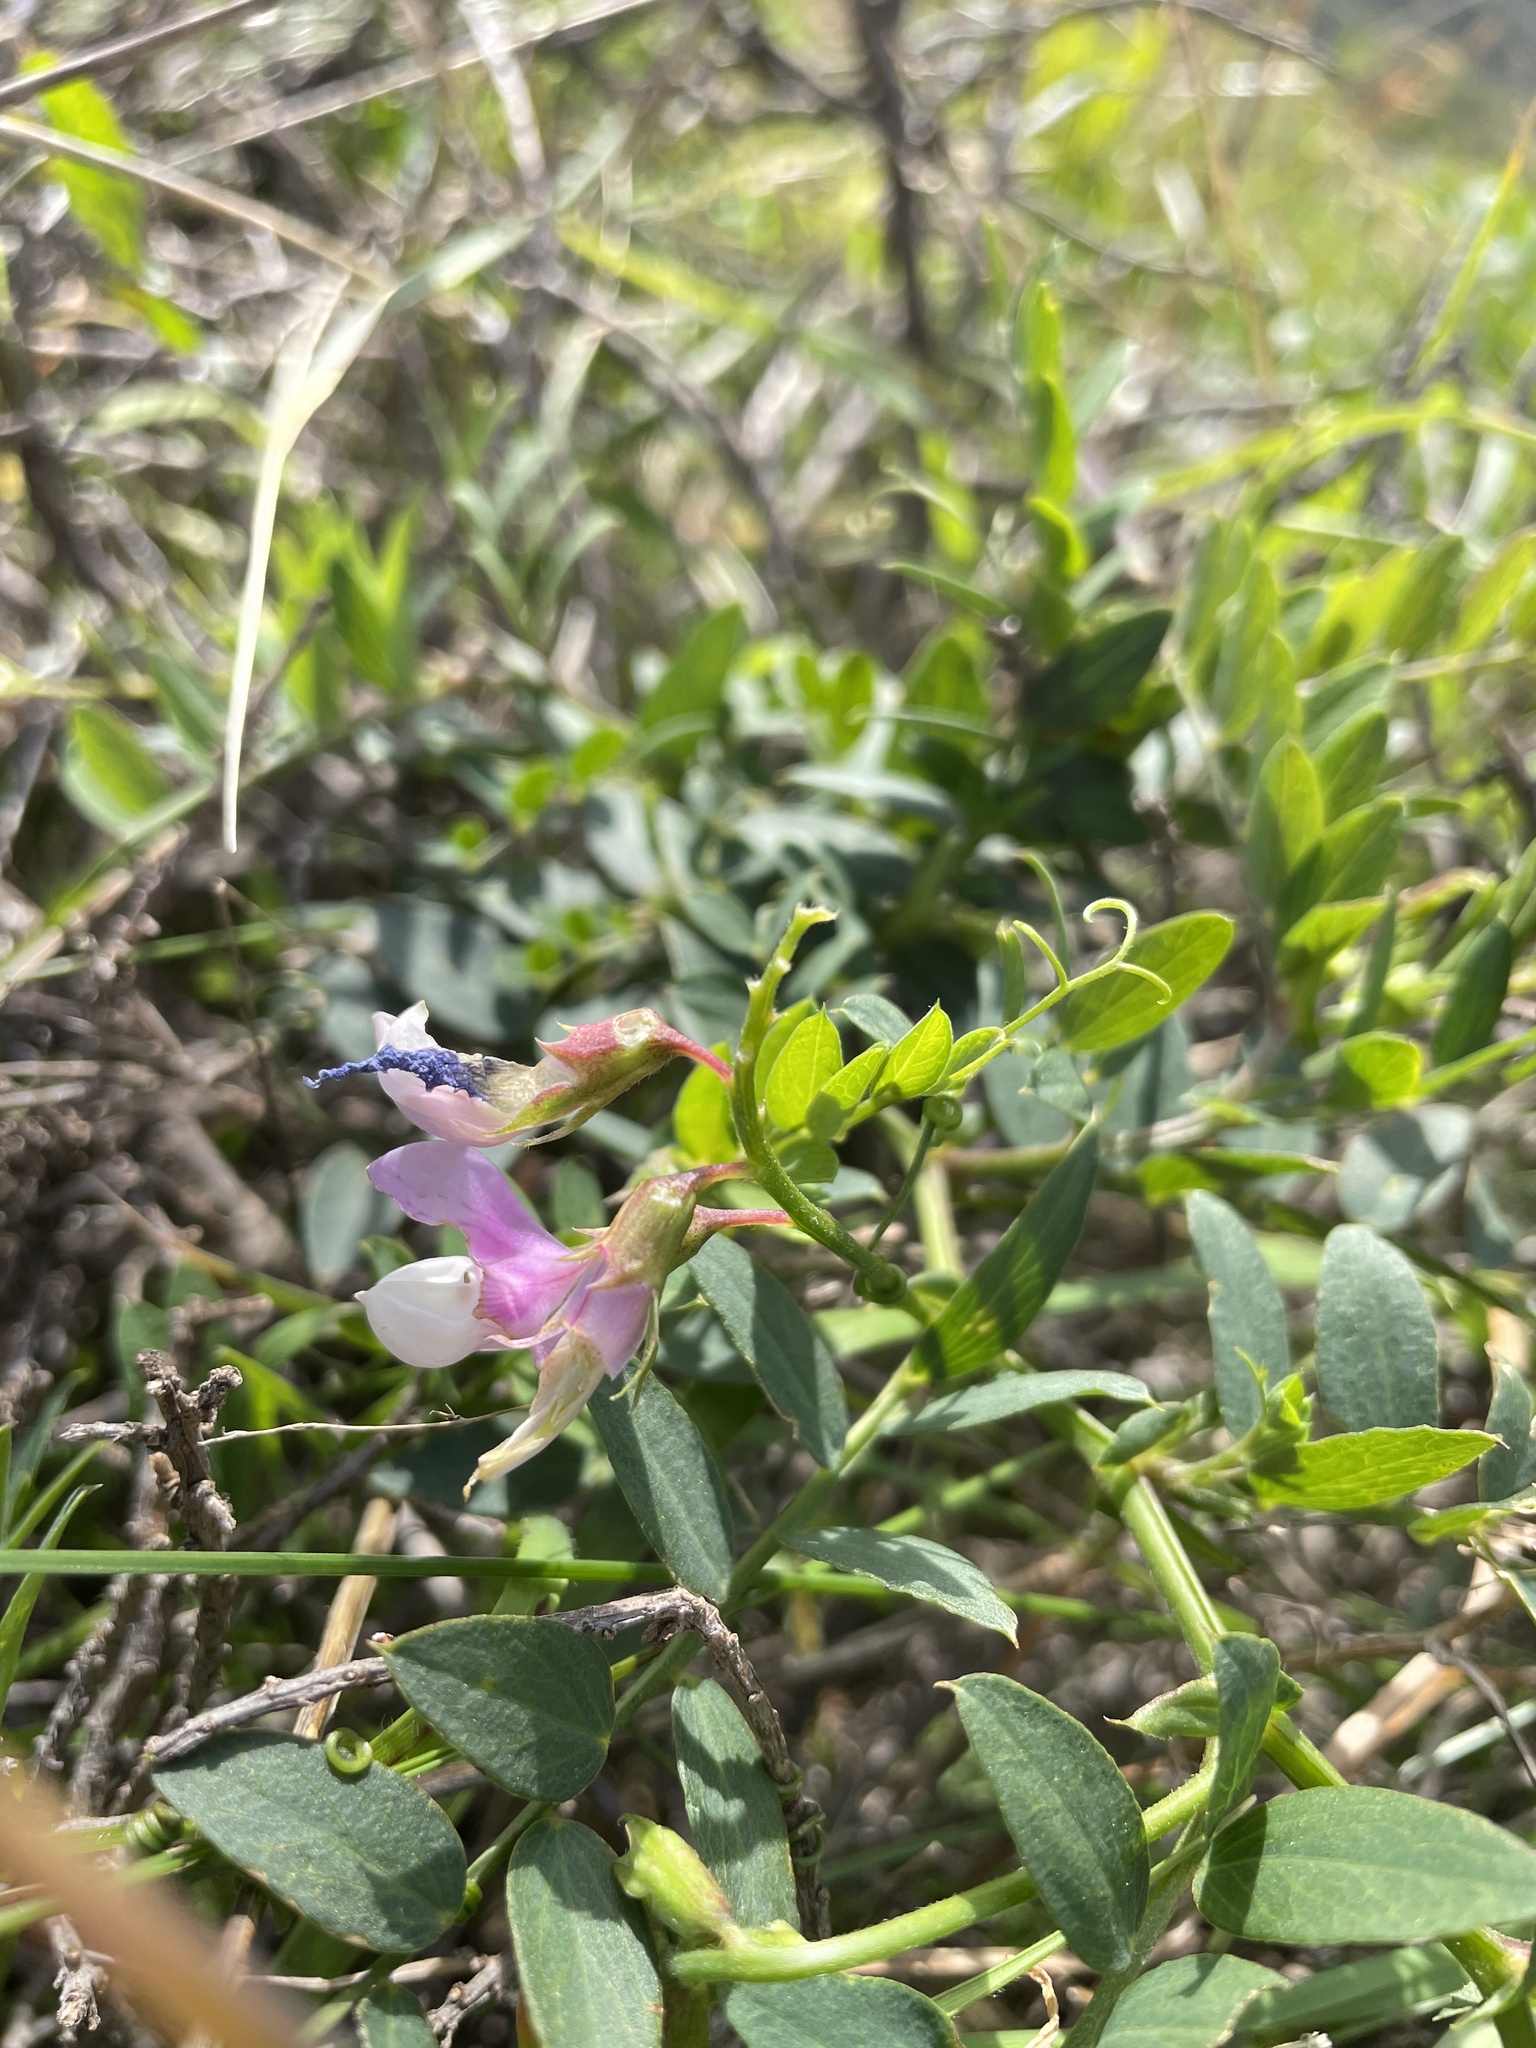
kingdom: Plantae
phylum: Tracheophyta
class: Magnoliopsida
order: Fabales
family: Fabaceae
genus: Lathyrus
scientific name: Lathyrus vestitus
